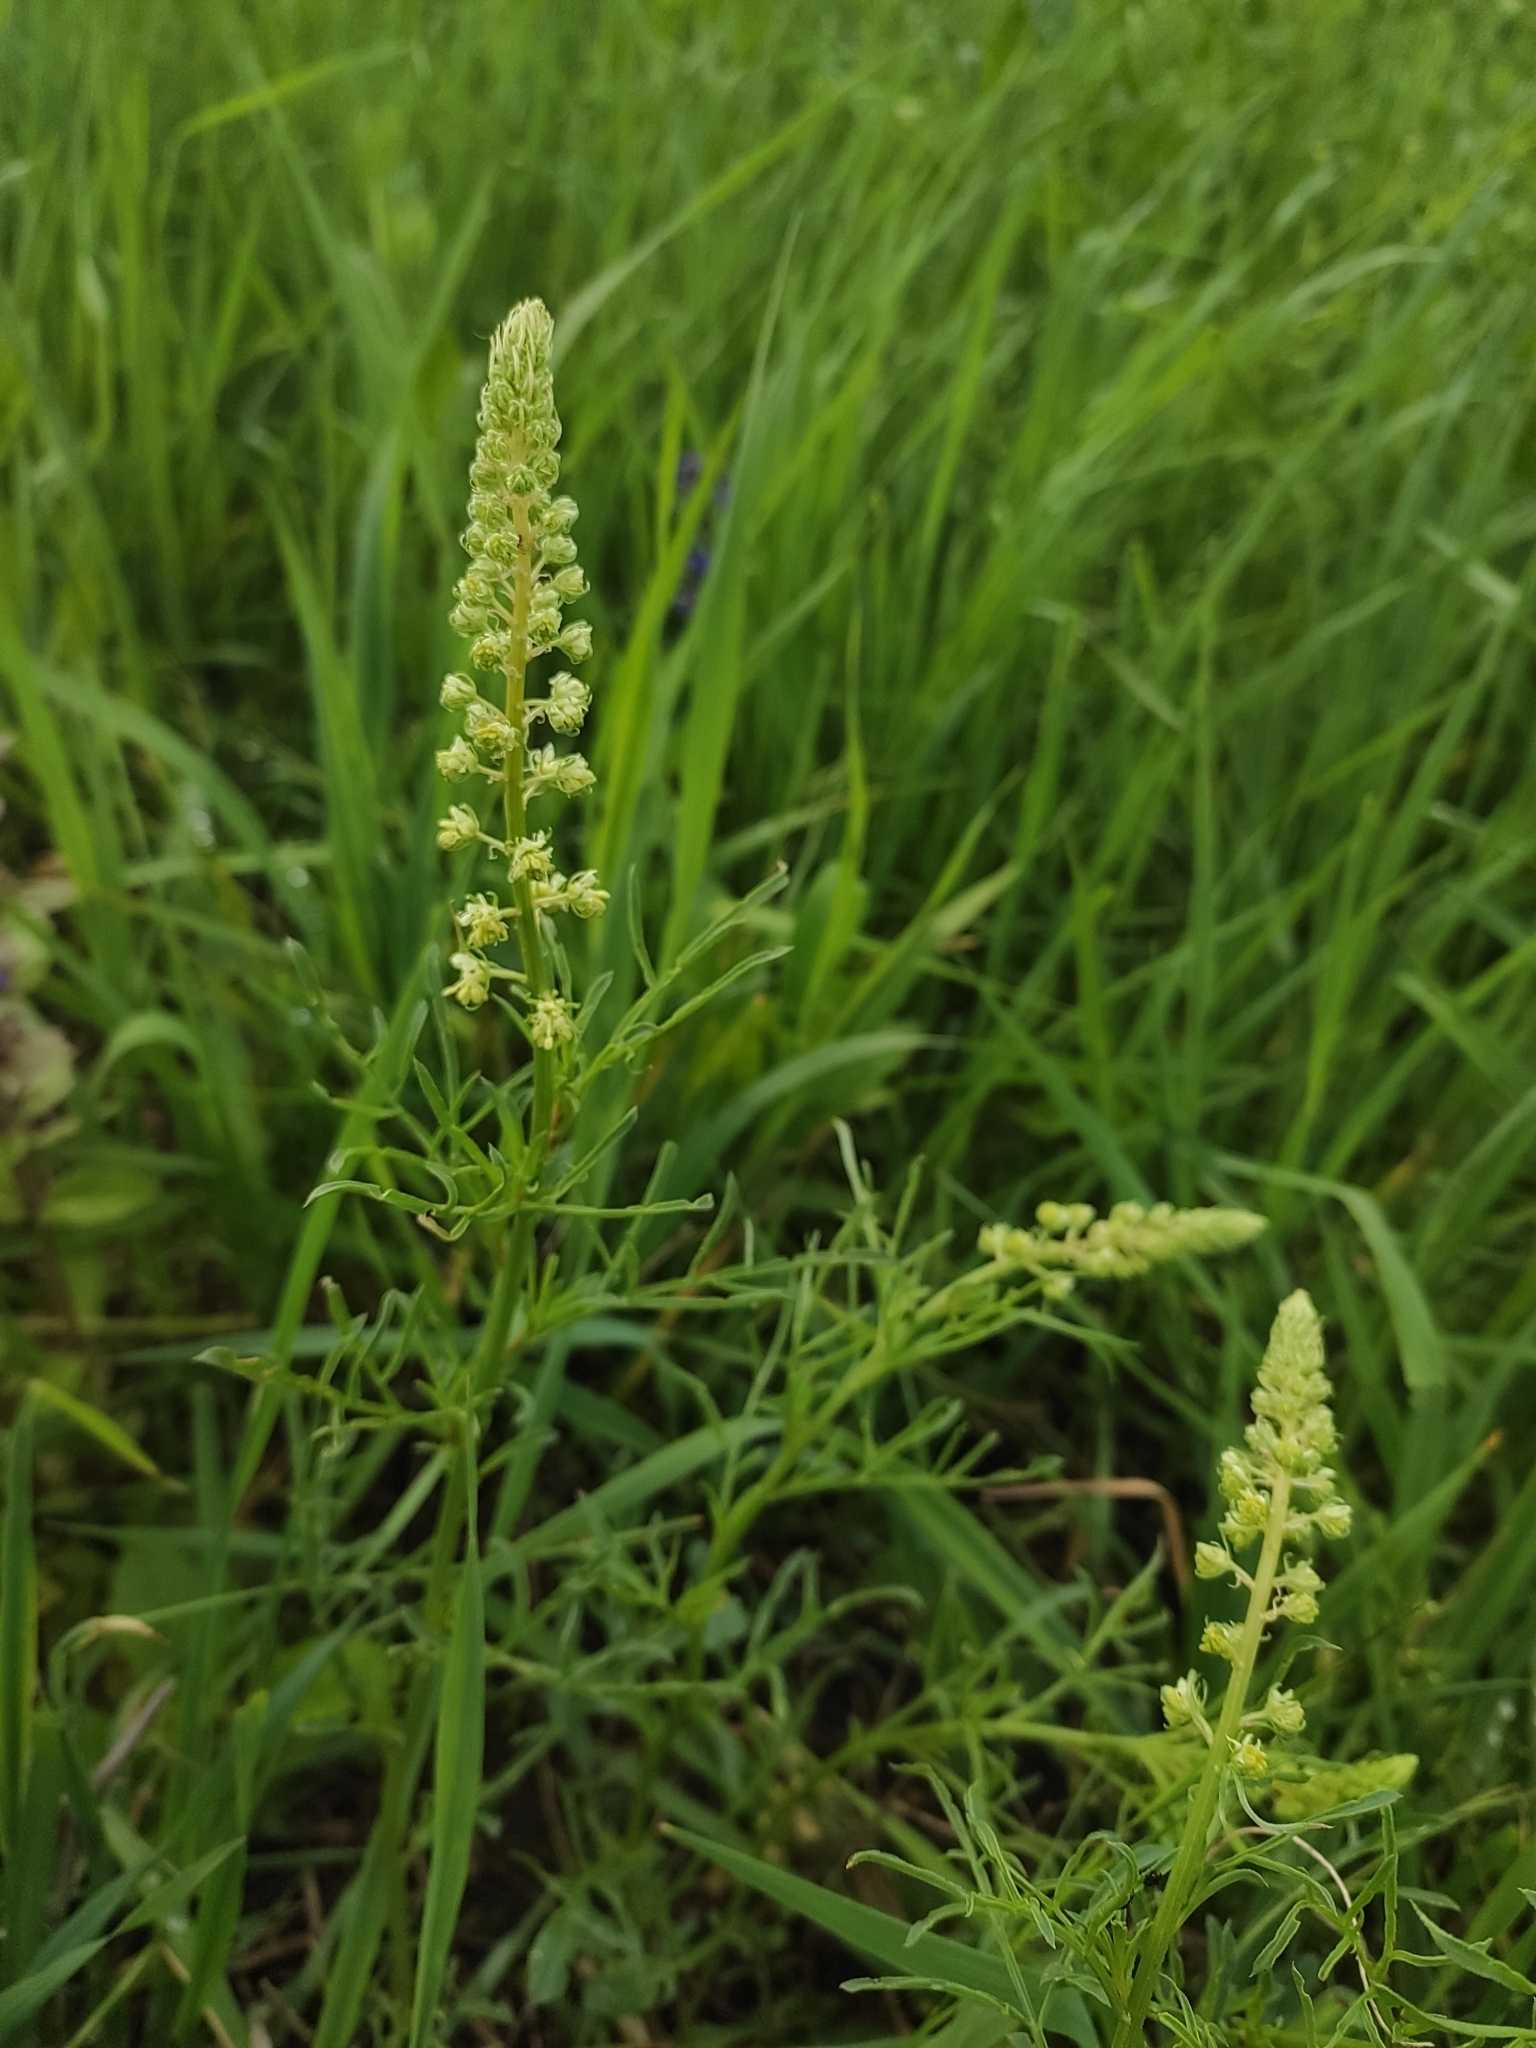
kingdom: Plantae
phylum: Tracheophyta
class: Magnoliopsida
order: Brassicales
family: Resedaceae
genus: Reseda
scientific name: Reseda lutea
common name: Wild mignonette
